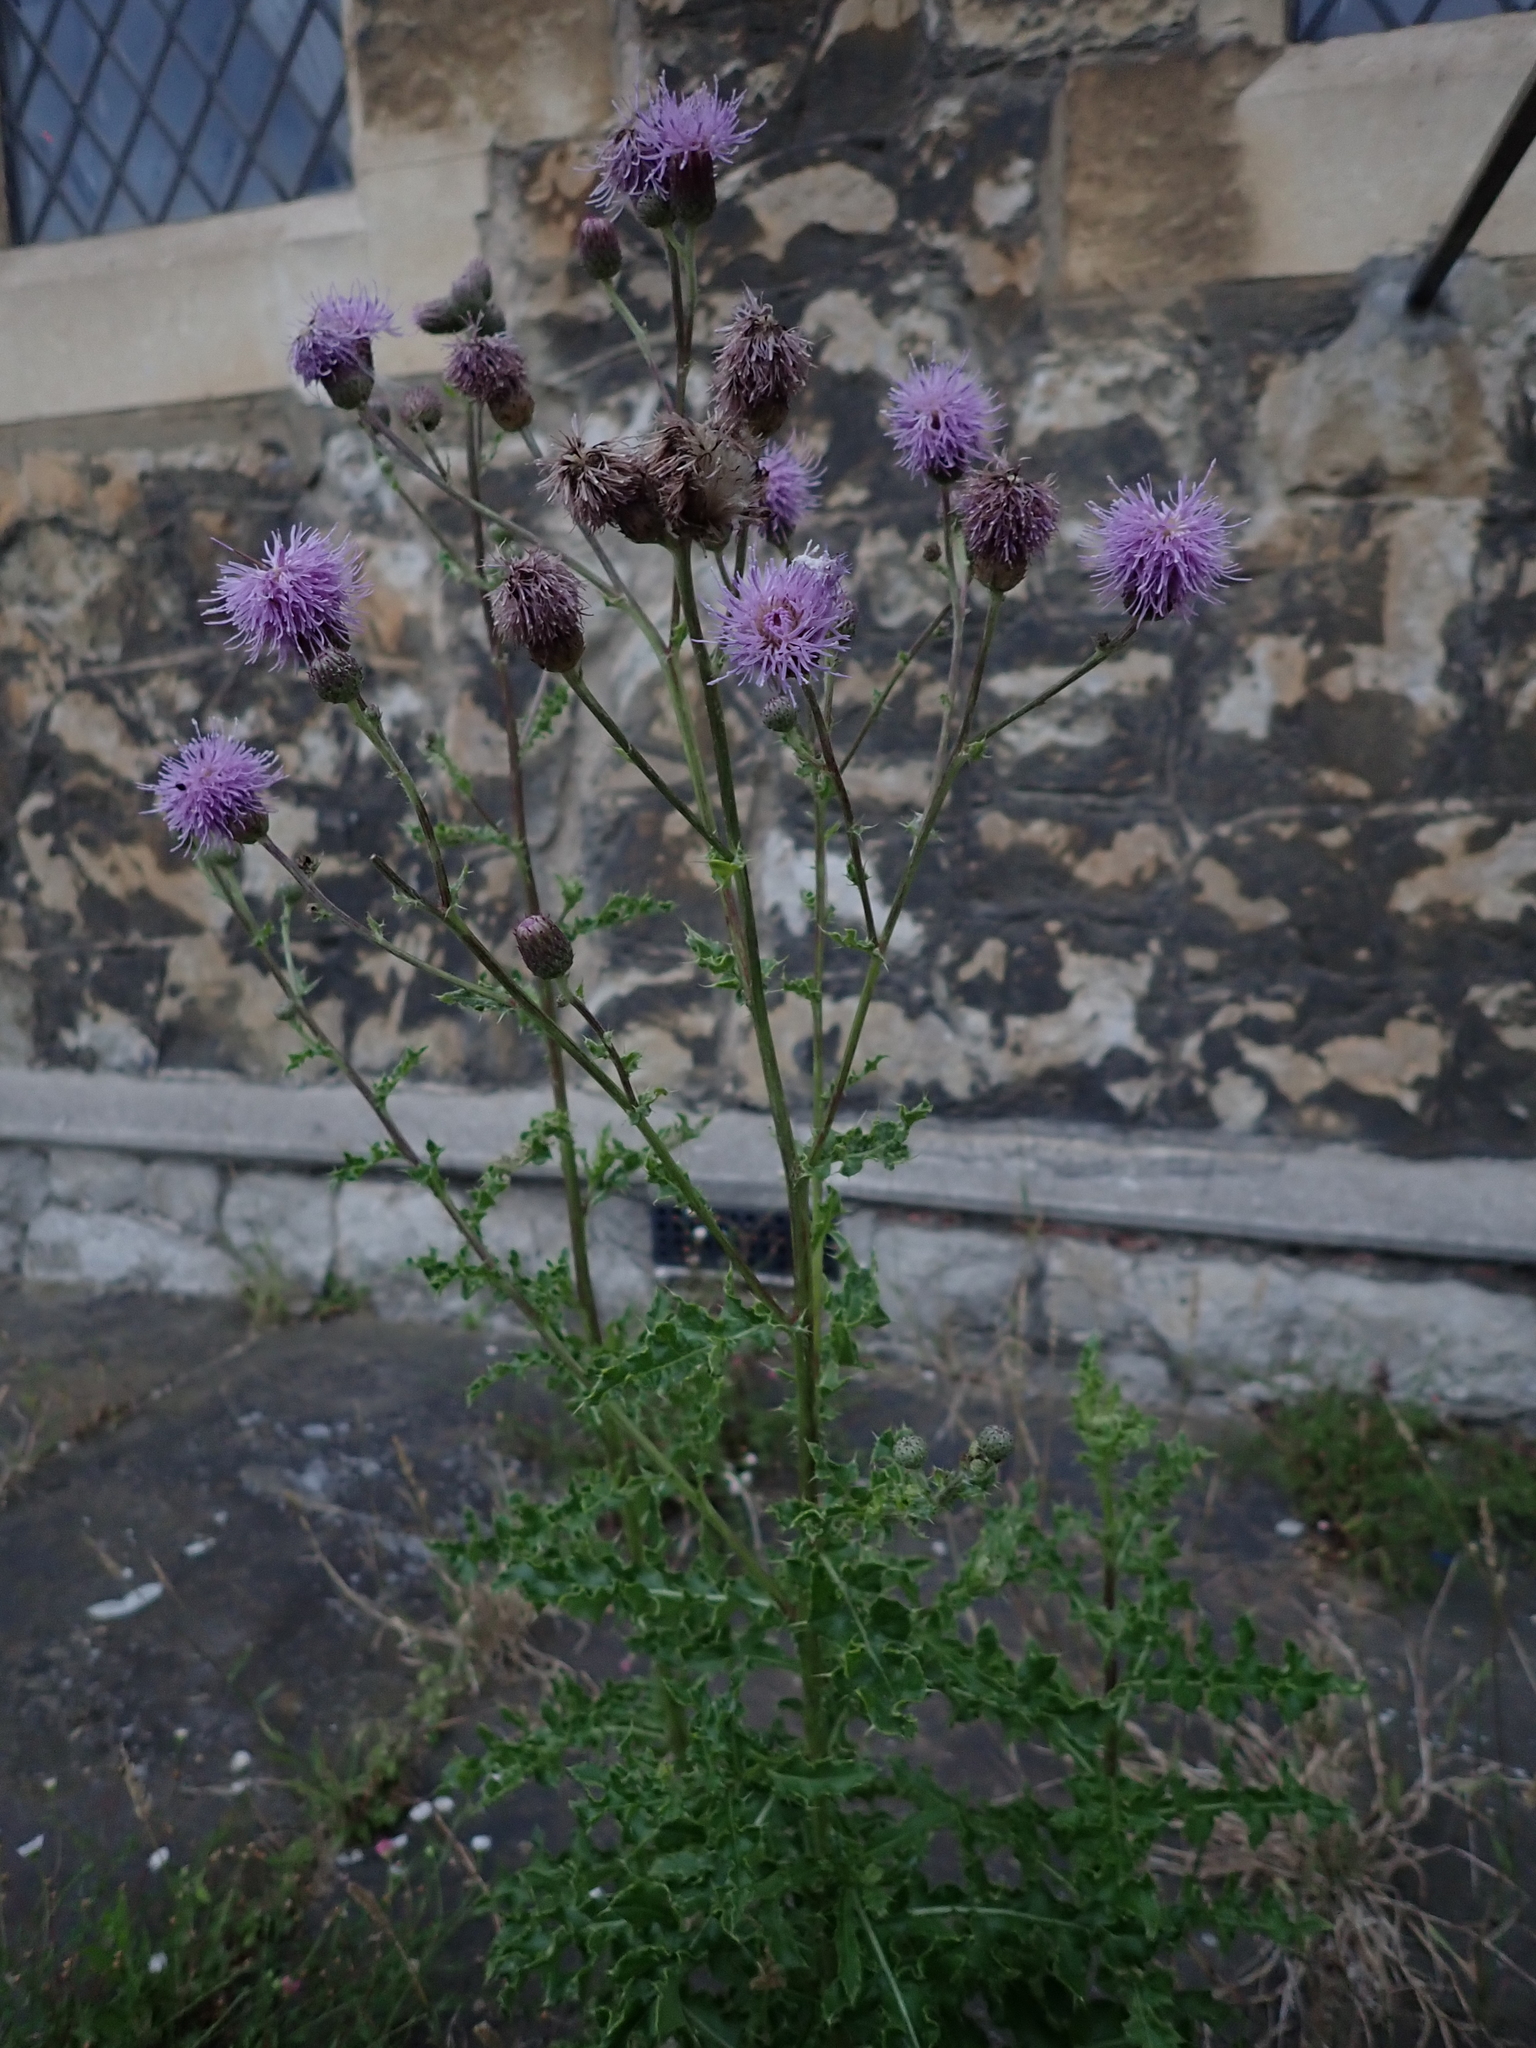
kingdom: Plantae
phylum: Tracheophyta
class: Magnoliopsida
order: Asterales
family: Asteraceae
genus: Cirsium
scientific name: Cirsium arvense
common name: Creeping thistle
